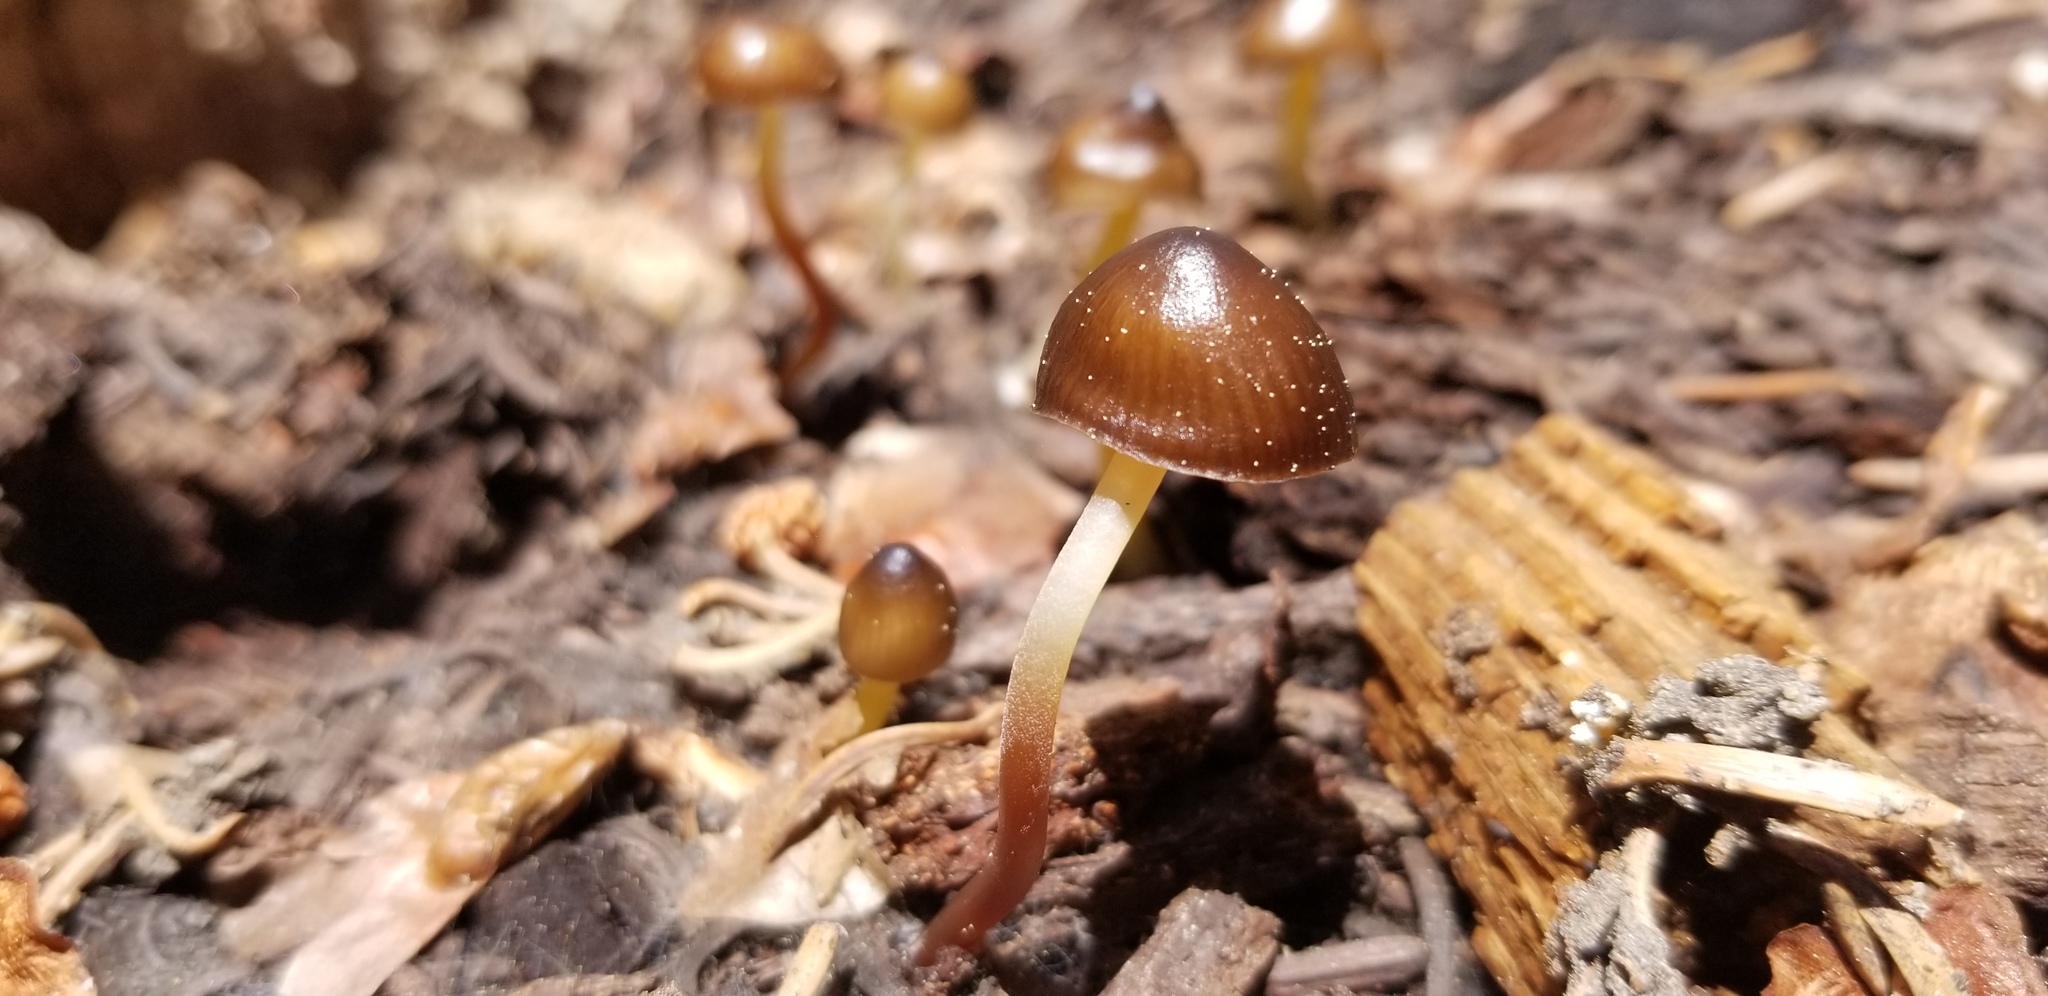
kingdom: Fungi
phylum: Basidiomycota
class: Agaricomycetes
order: Agaricales
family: Mycenaceae
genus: Mycena
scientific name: Mycena nivicola
